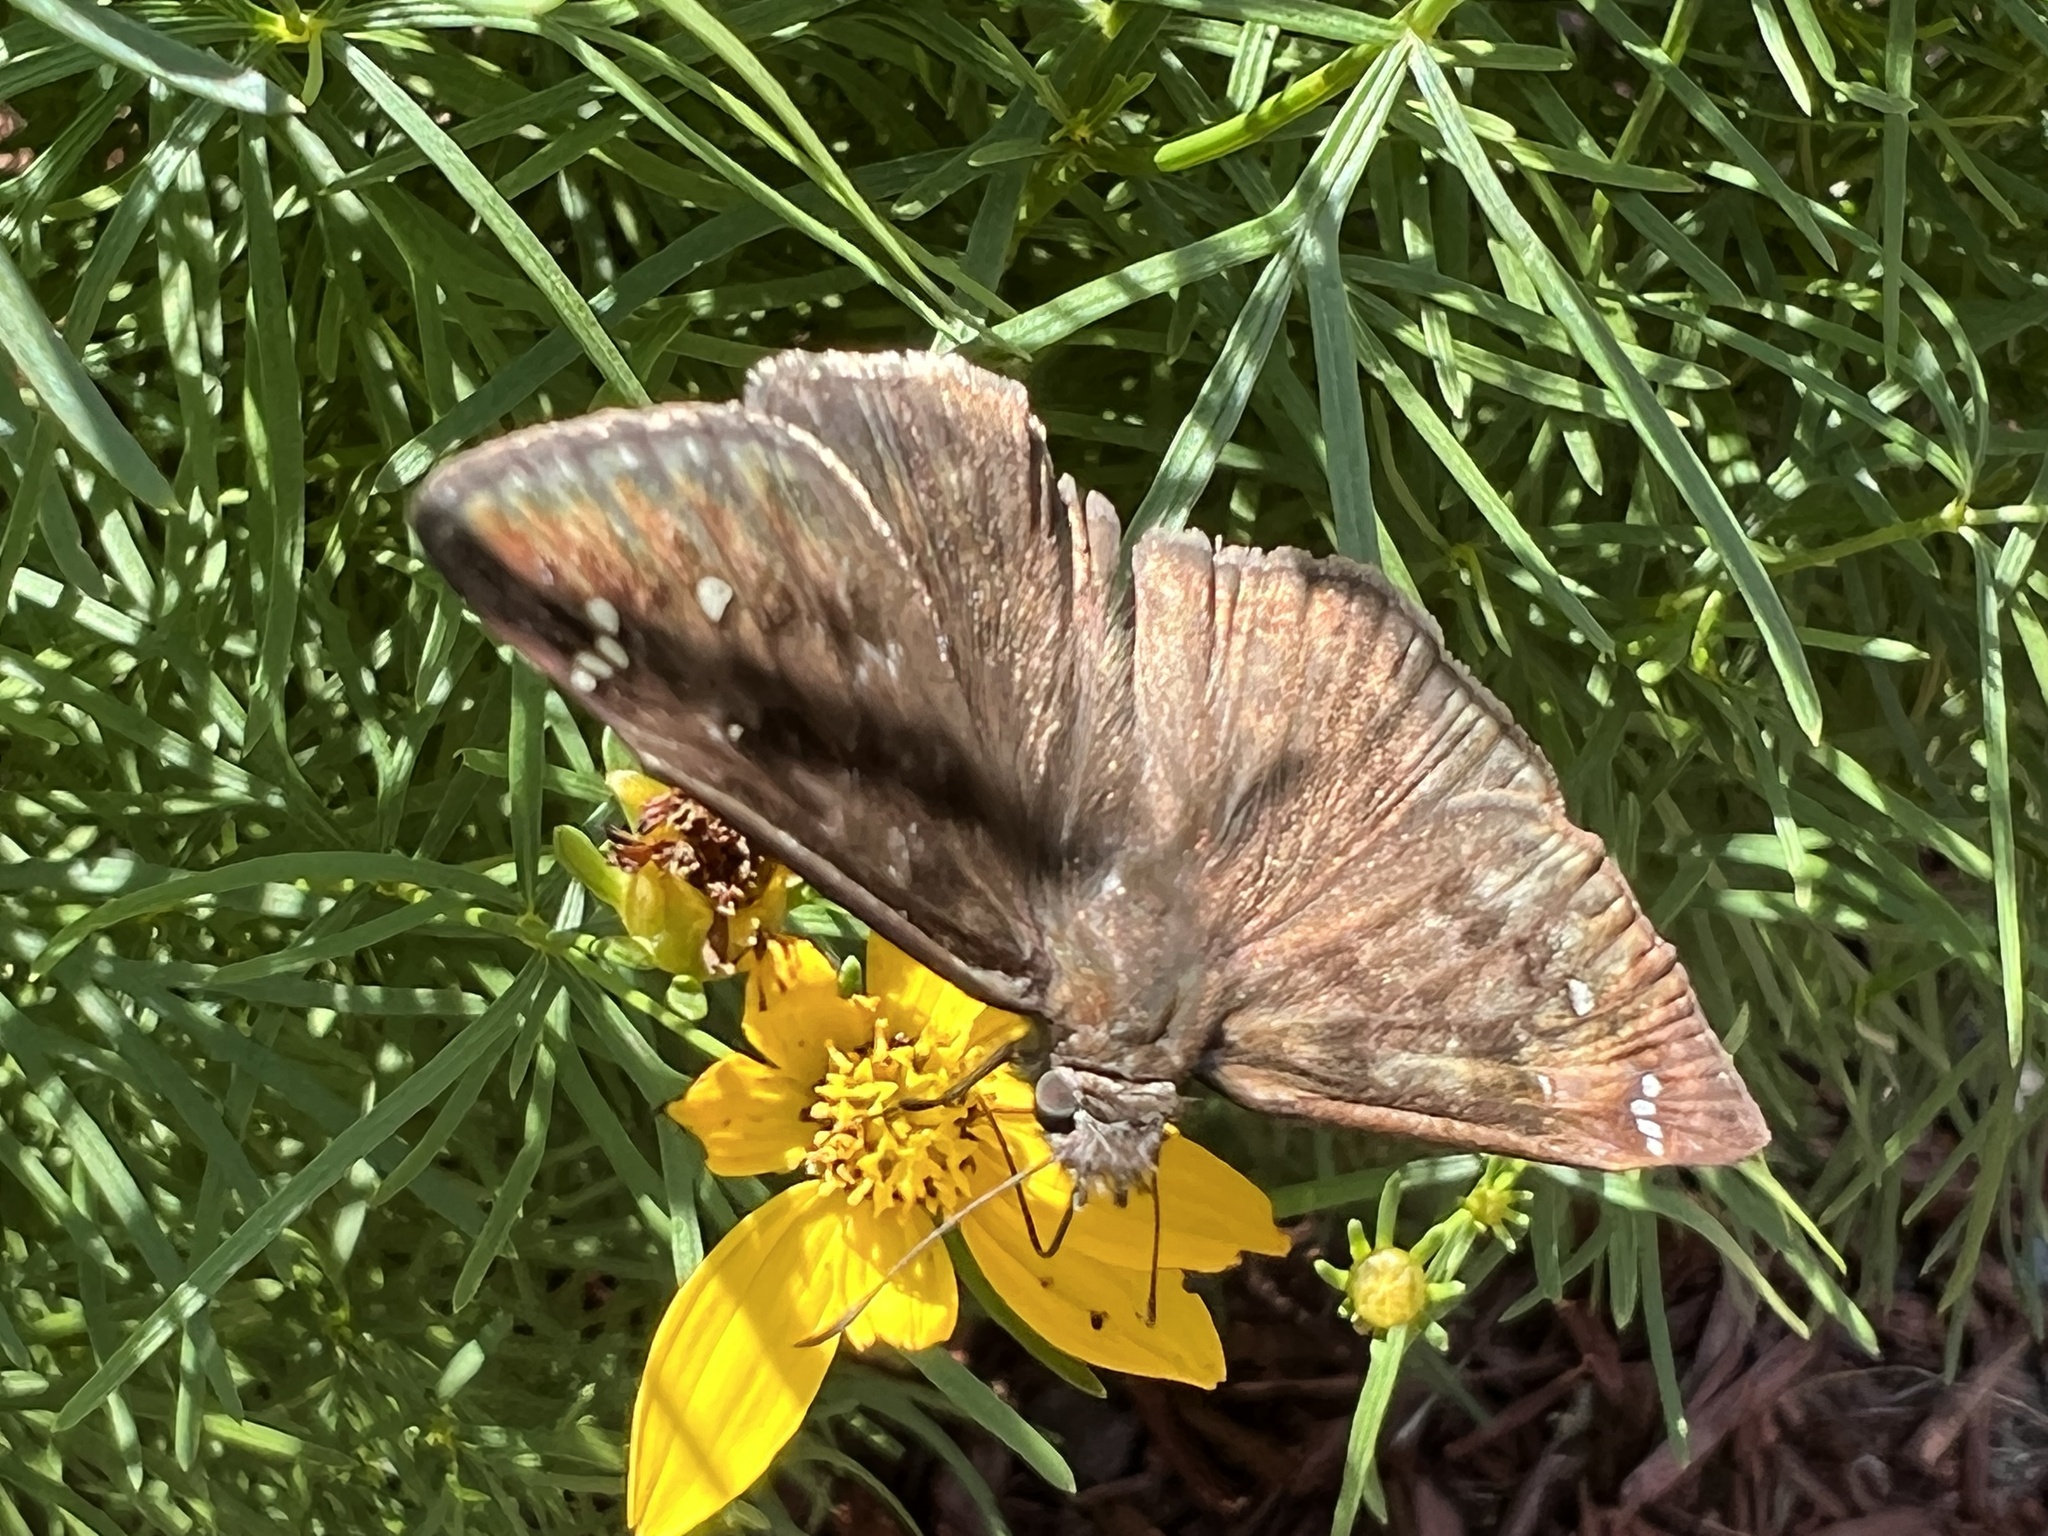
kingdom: Animalia
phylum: Arthropoda
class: Insecta
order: Lepidoptera
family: Hesperiidae
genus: Erynnis
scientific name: Erynnis horatius
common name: Horace's duskywing
